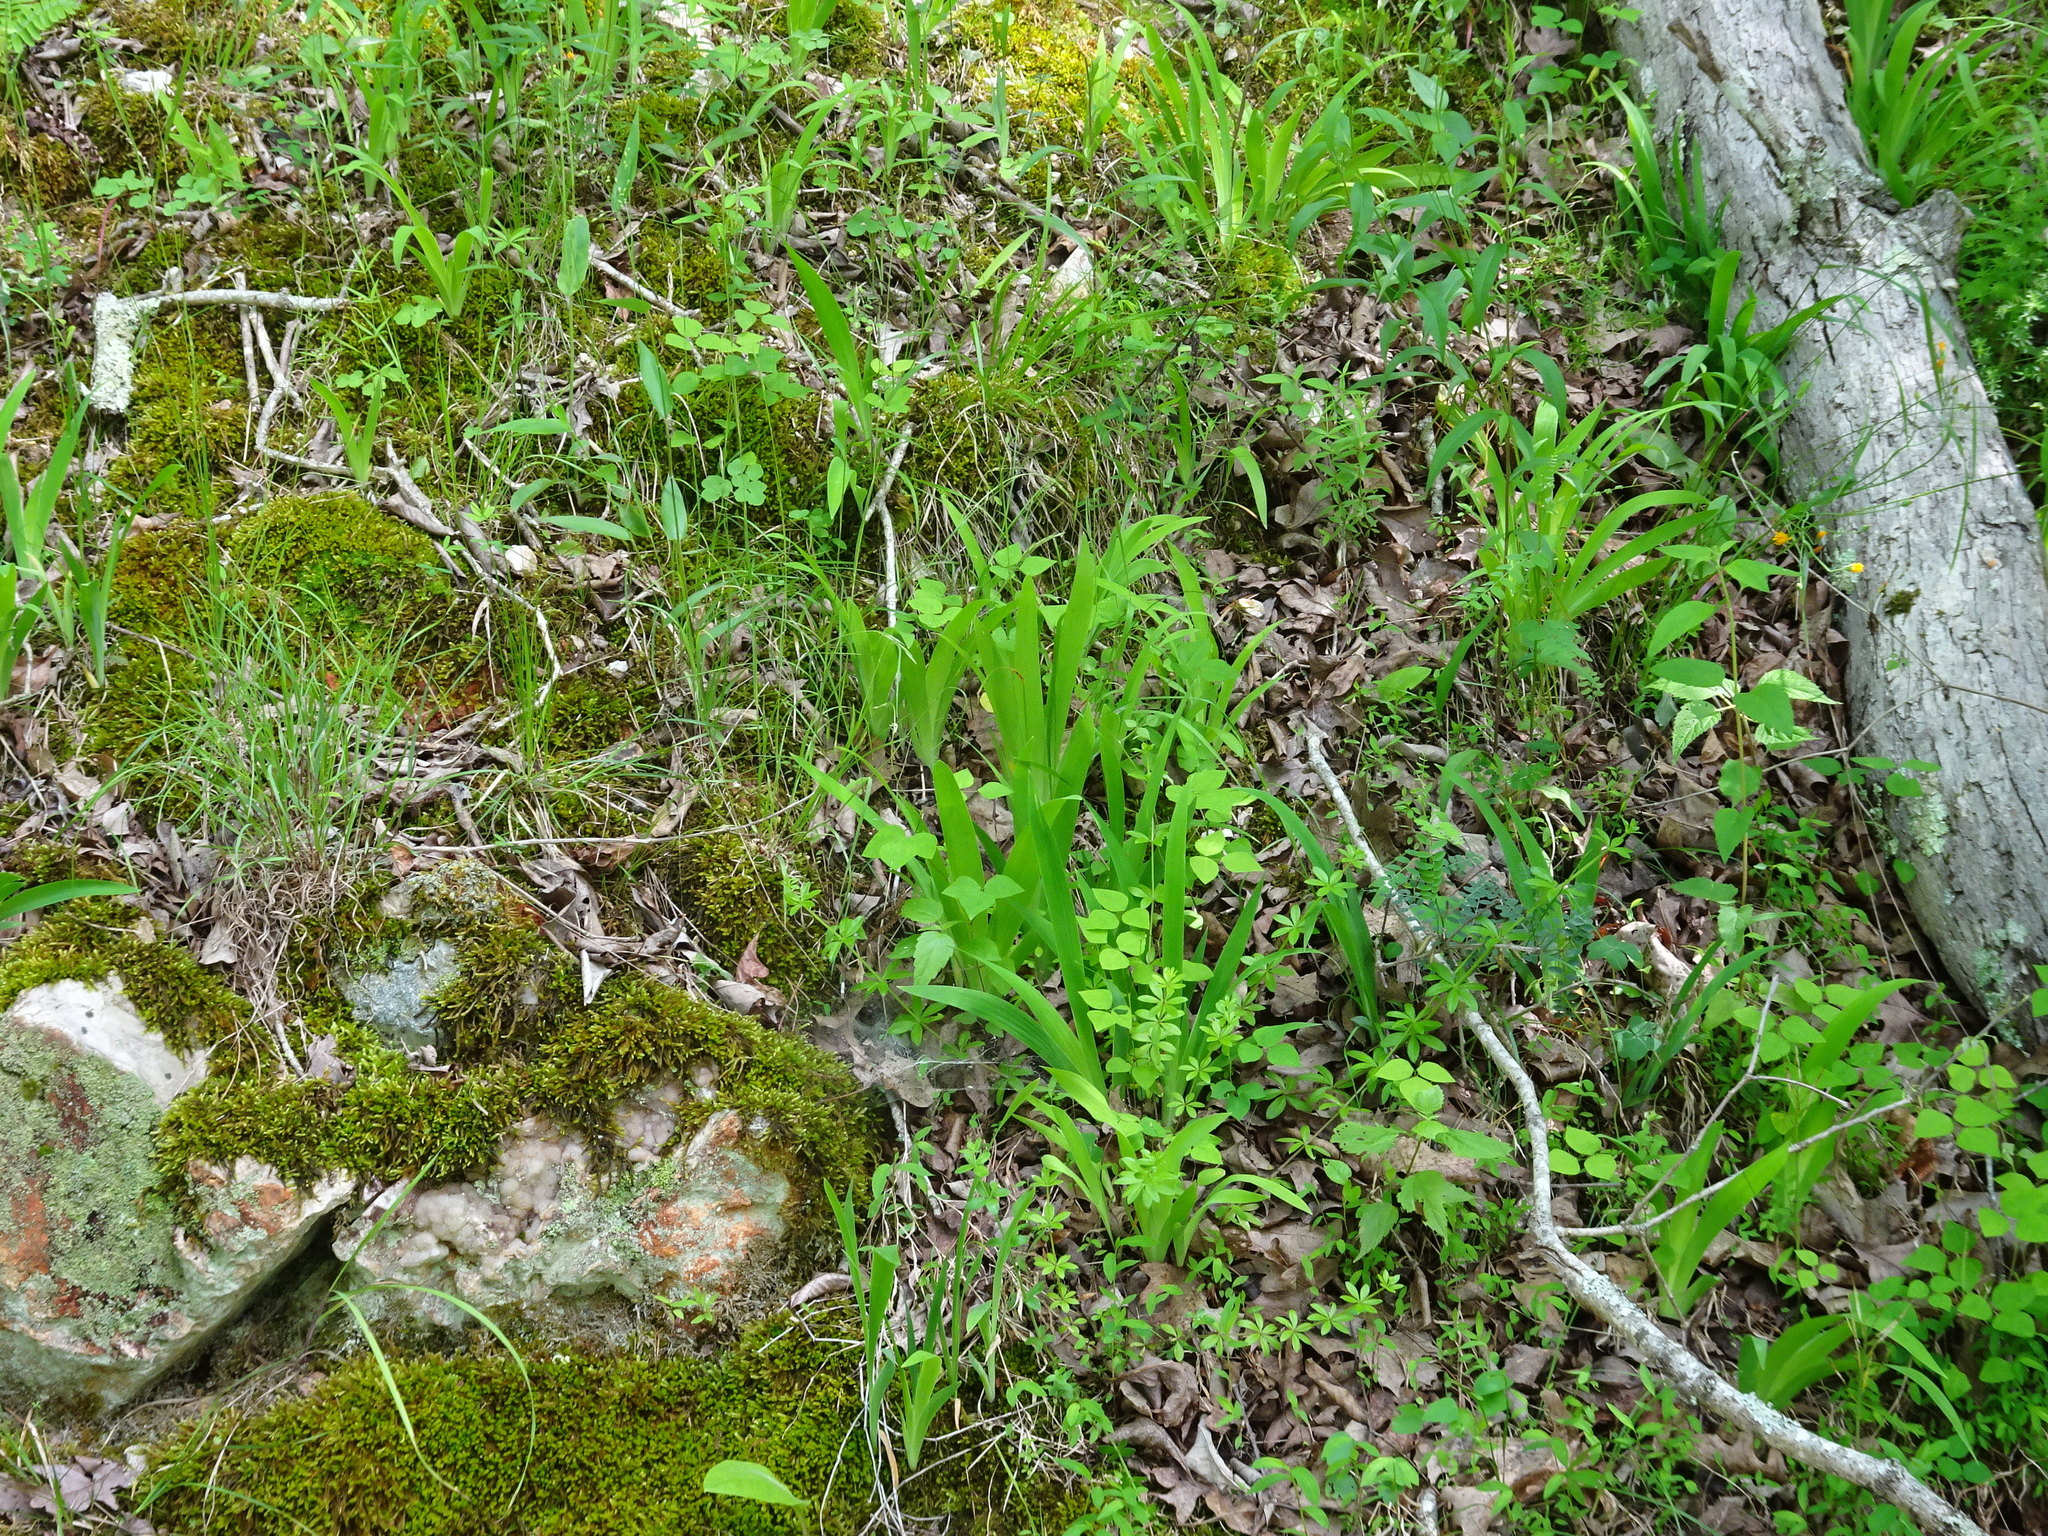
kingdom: Plantae
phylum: Tracheophyta
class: Liliopsida
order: Asparagales
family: Iridaceae
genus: Iris
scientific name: Iris cristata
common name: Crested iris
